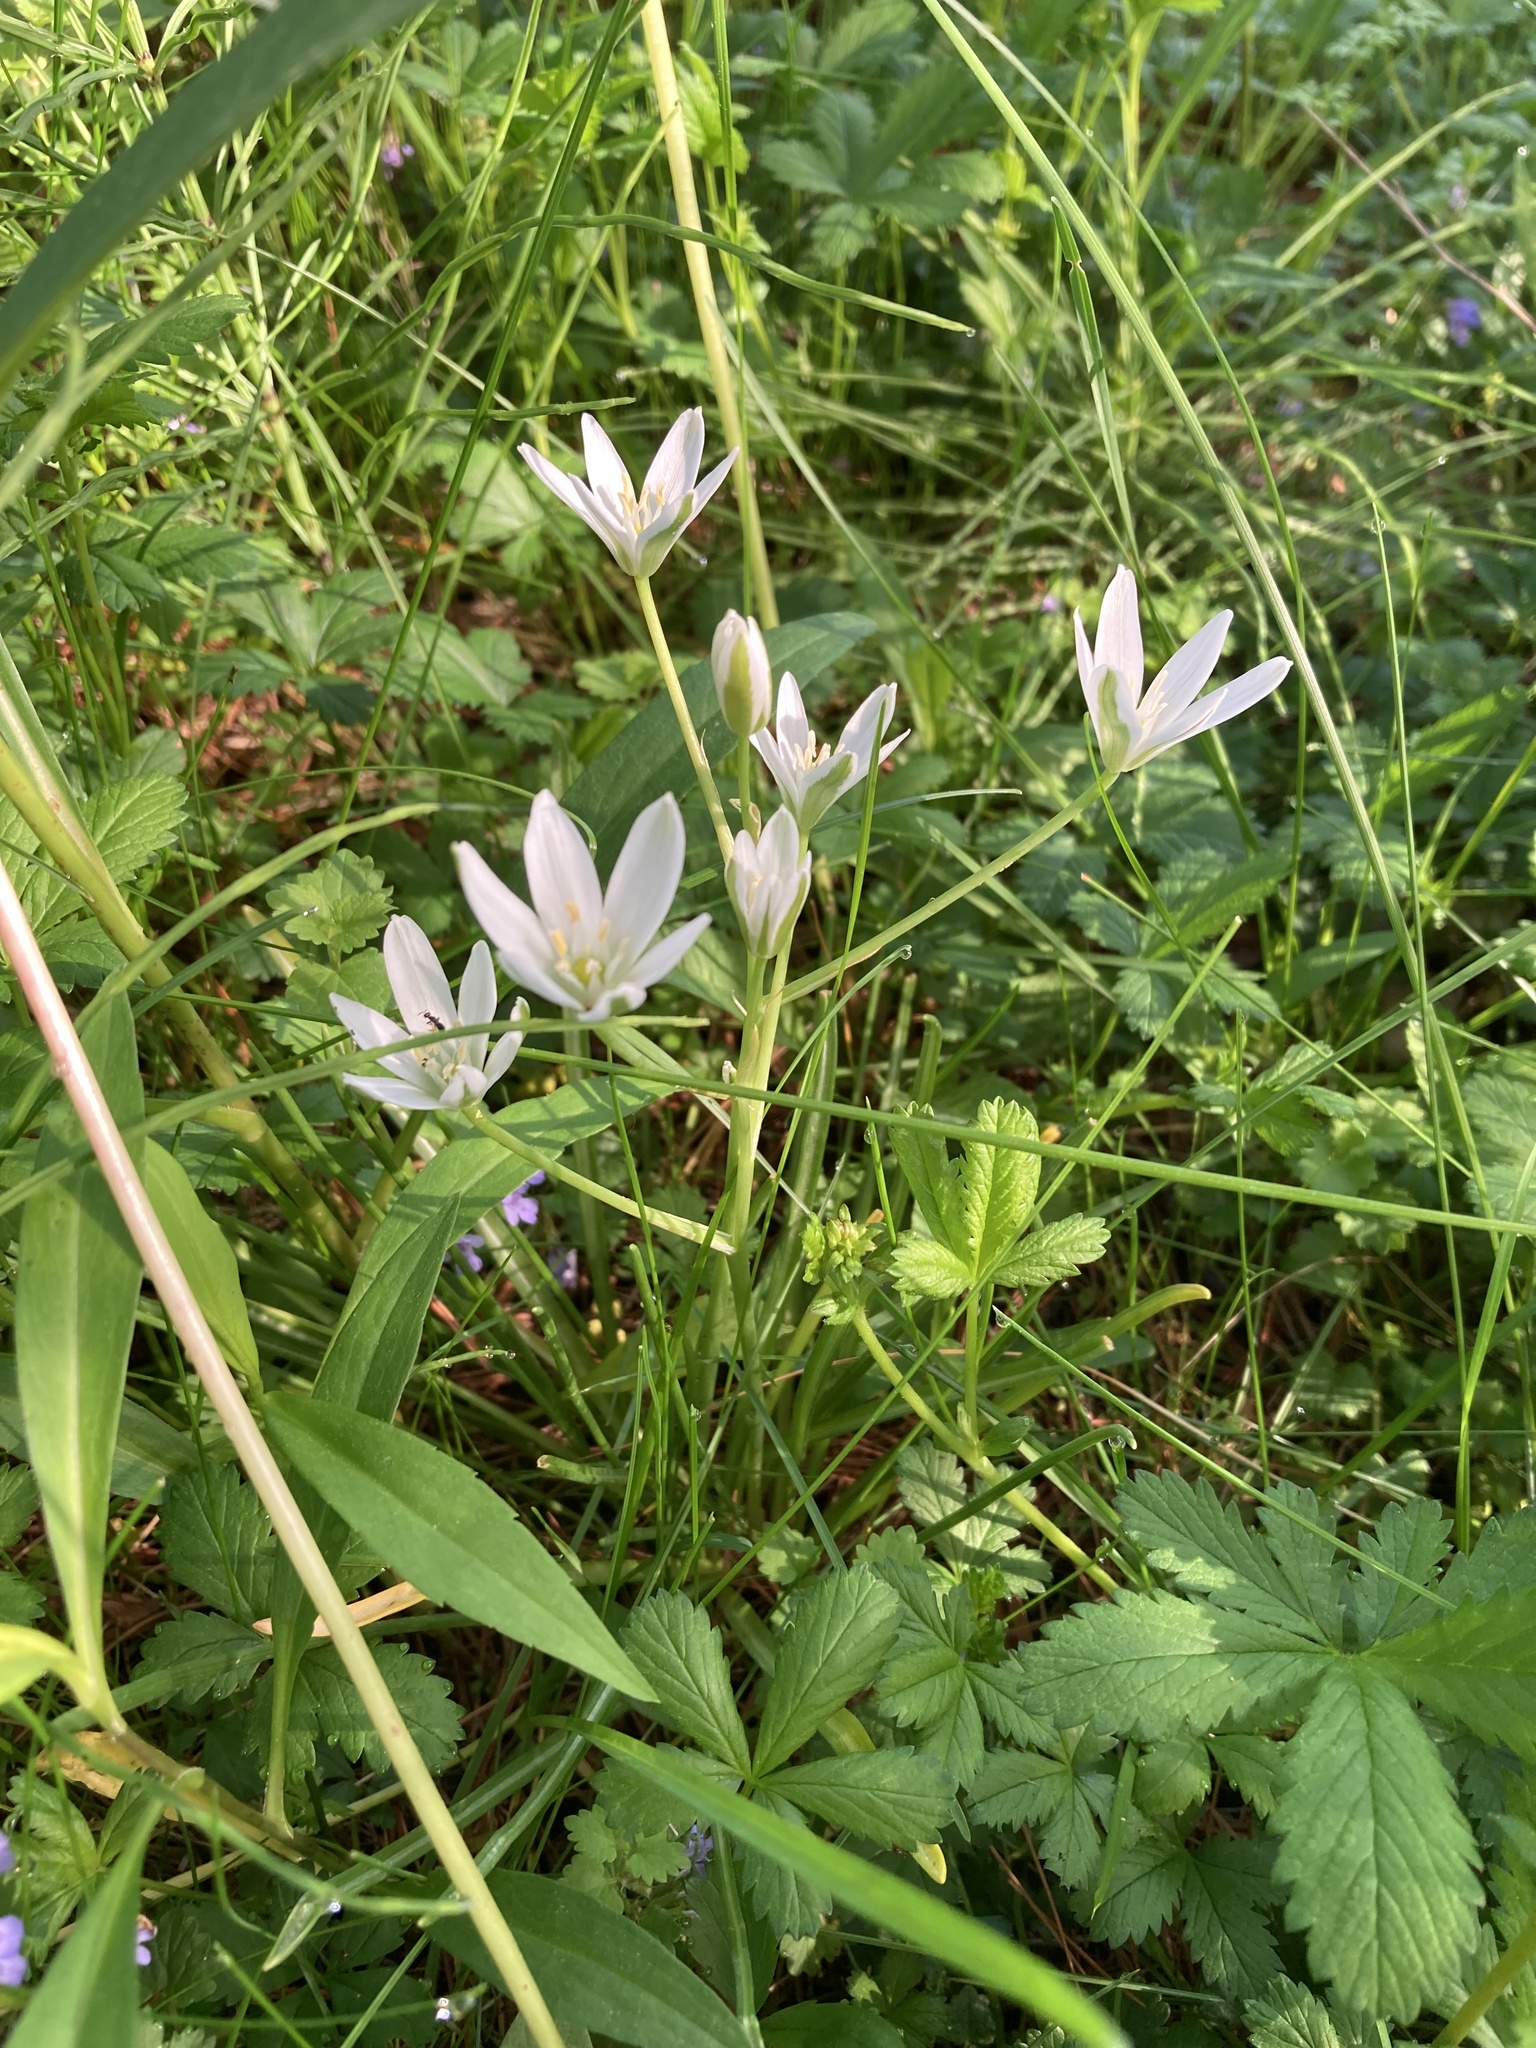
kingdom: Plantae
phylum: Tracheophyta
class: Liliopsida
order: Asparagales
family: Asparagaceae
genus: Ornithogalum
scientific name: Ornithogalum umbellatum
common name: Garden star-of-bethlehem
